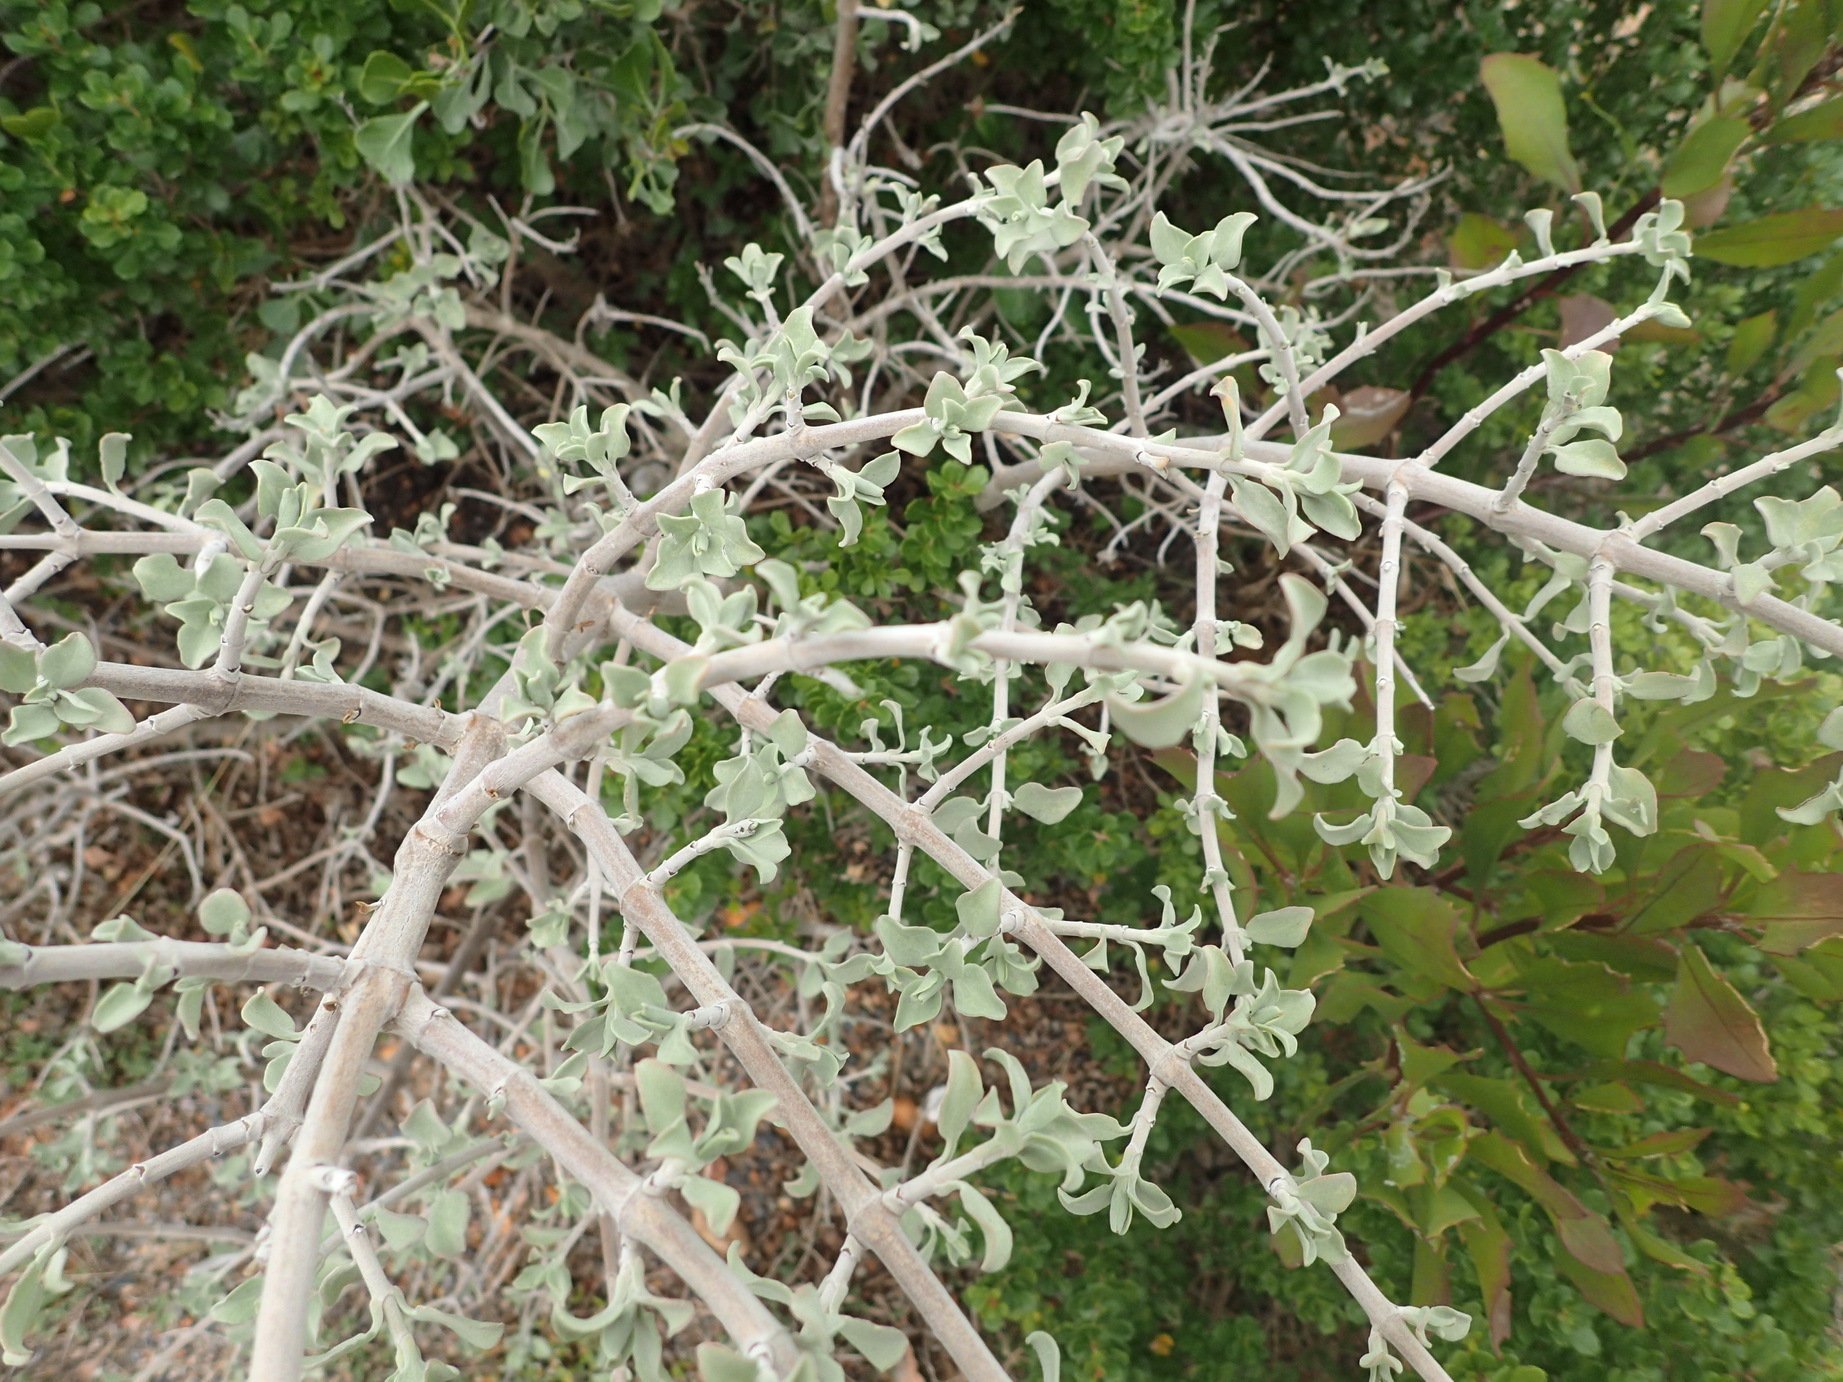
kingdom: Plantae
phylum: Tracheophyta
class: Magnoliopsida
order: Lamiales
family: Lamiaceae
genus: Salvia
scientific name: Salvia aurea
